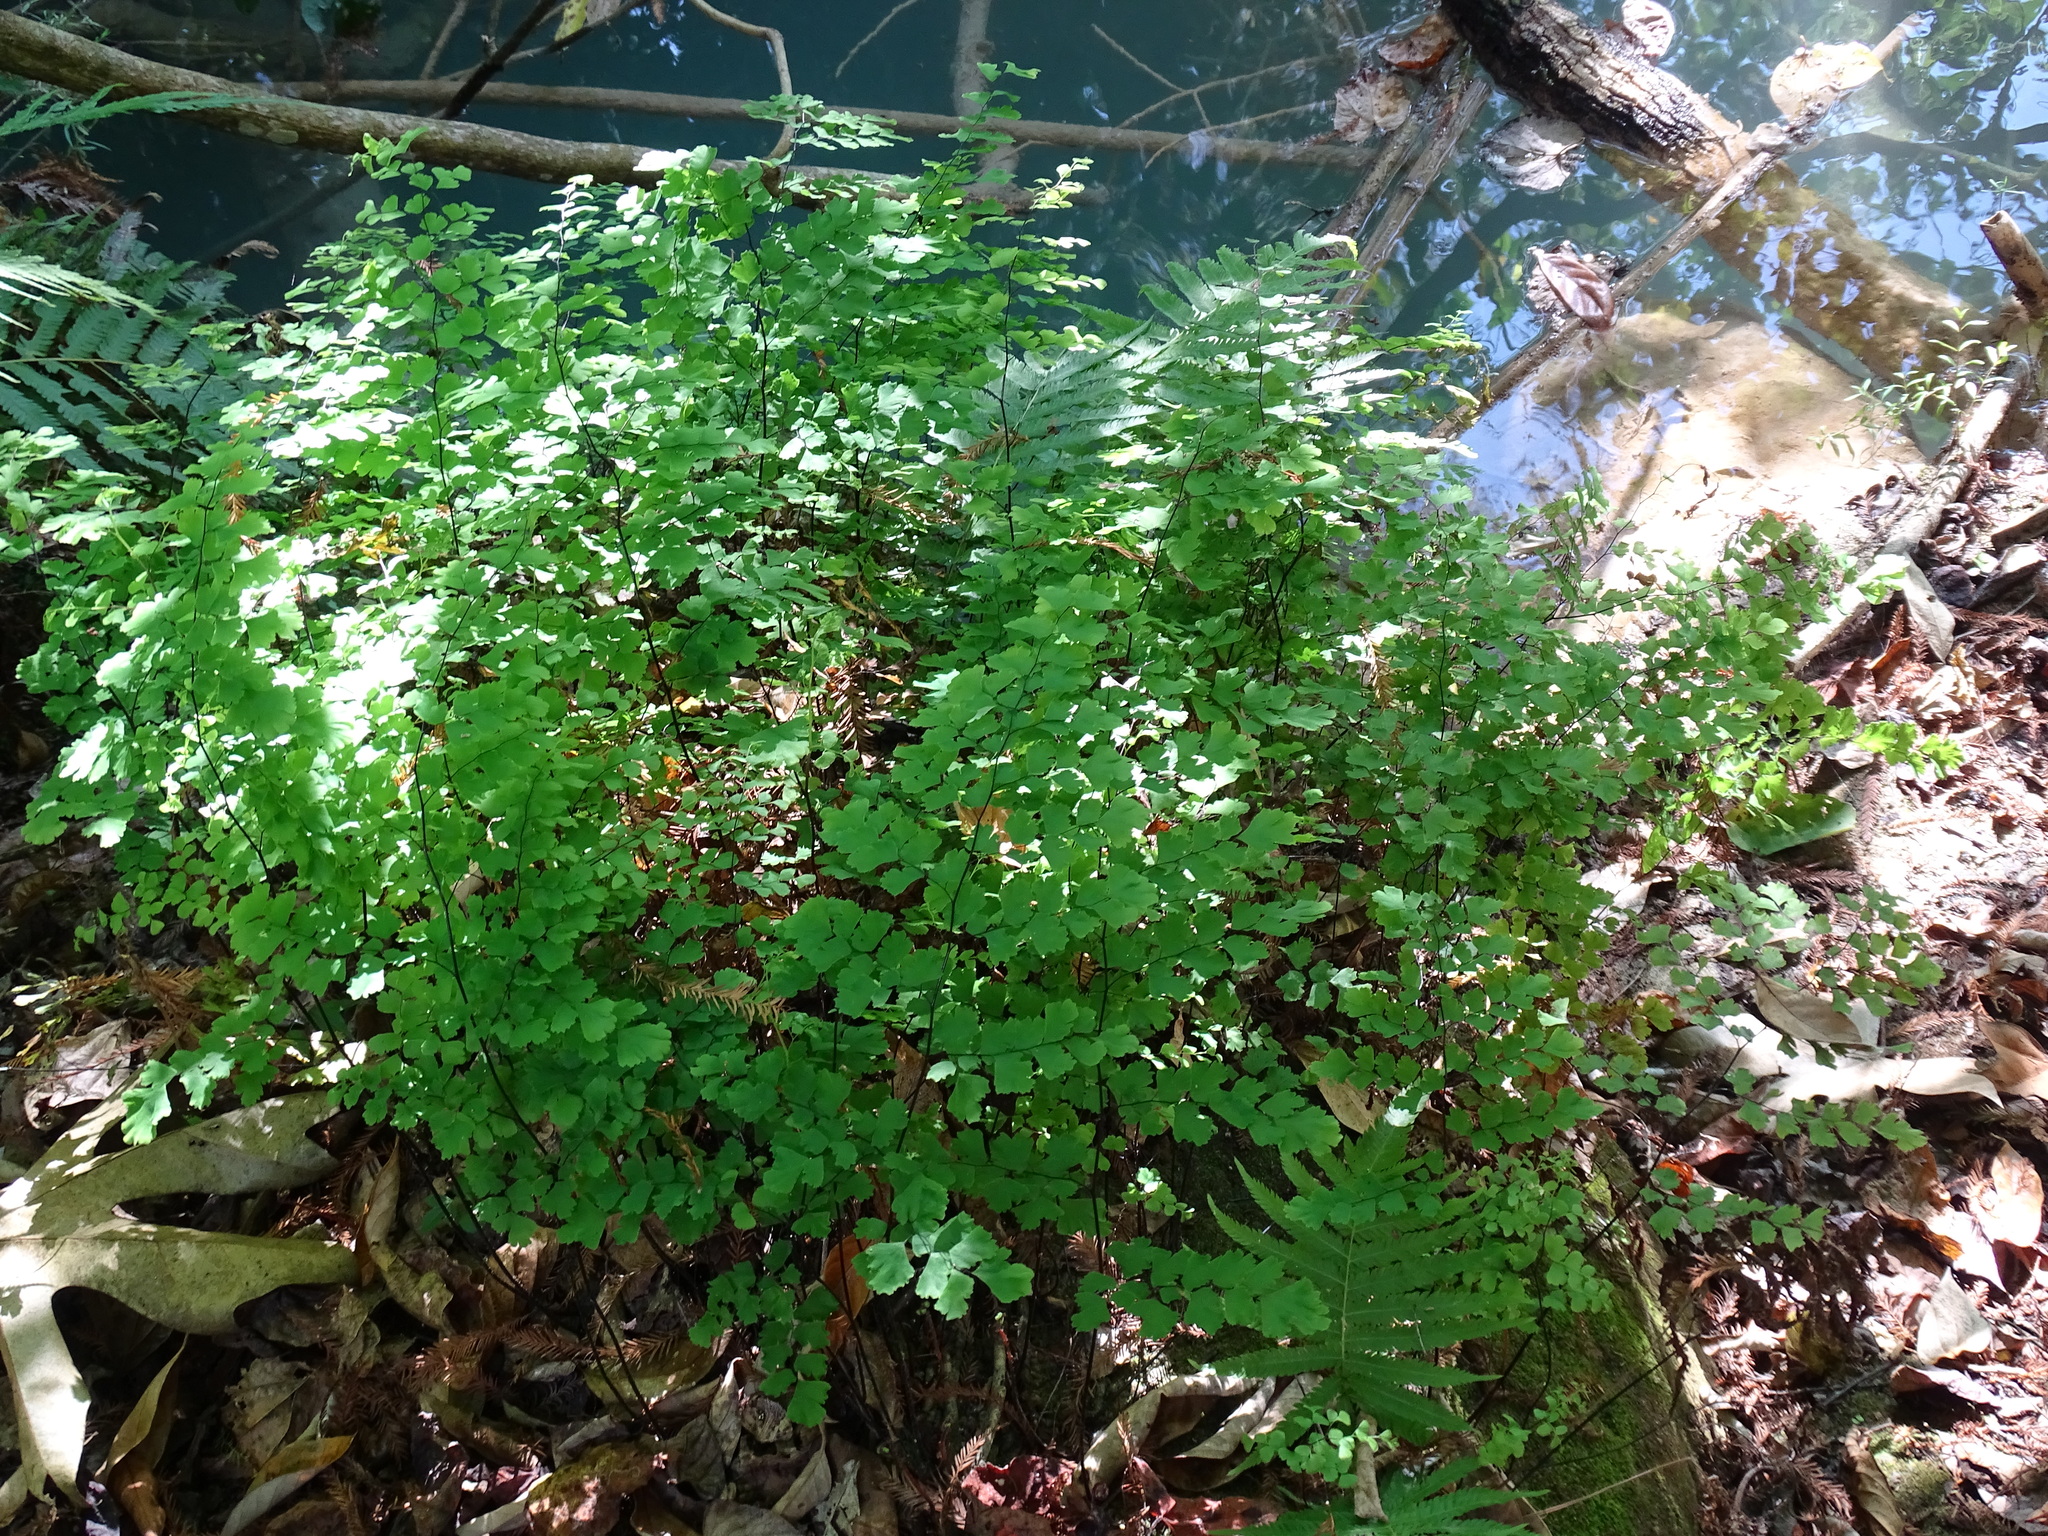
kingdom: Plantae
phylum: Tracheophyta
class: Polypodiopsida
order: Polypodiales
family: Pteridaceae
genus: Adiantum
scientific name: Adiantum capillus-veneris
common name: Maidenhair fern
